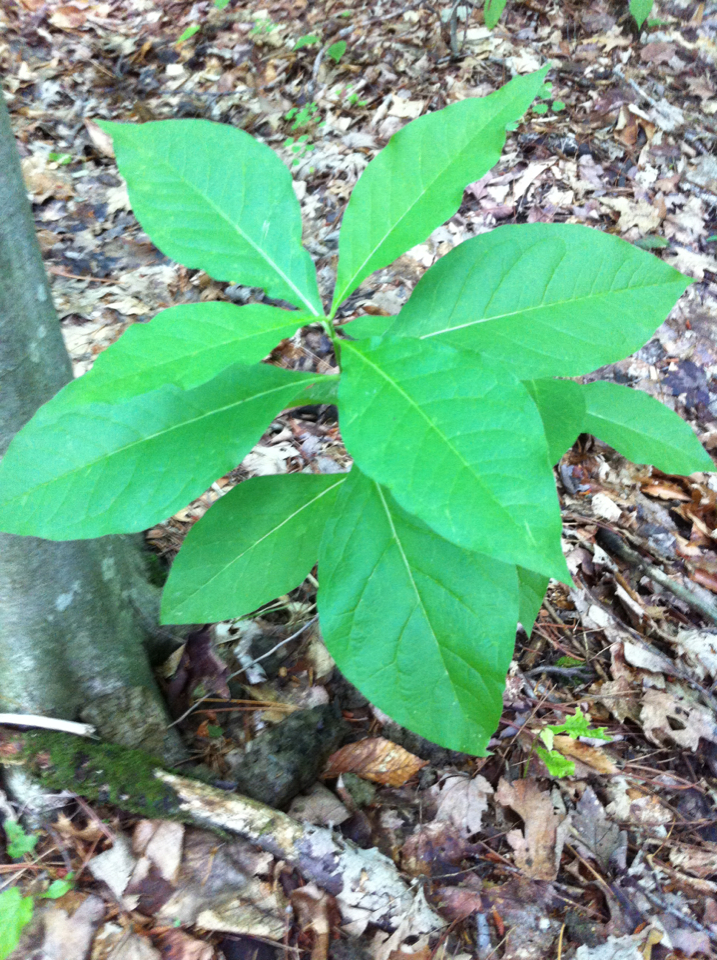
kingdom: Plantae
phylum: Tracheophyta
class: Magnoliopsida
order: Gentianales
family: Apocynaceae
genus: Asclepias
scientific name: Asclepias exaltata
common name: Poke milkweed
